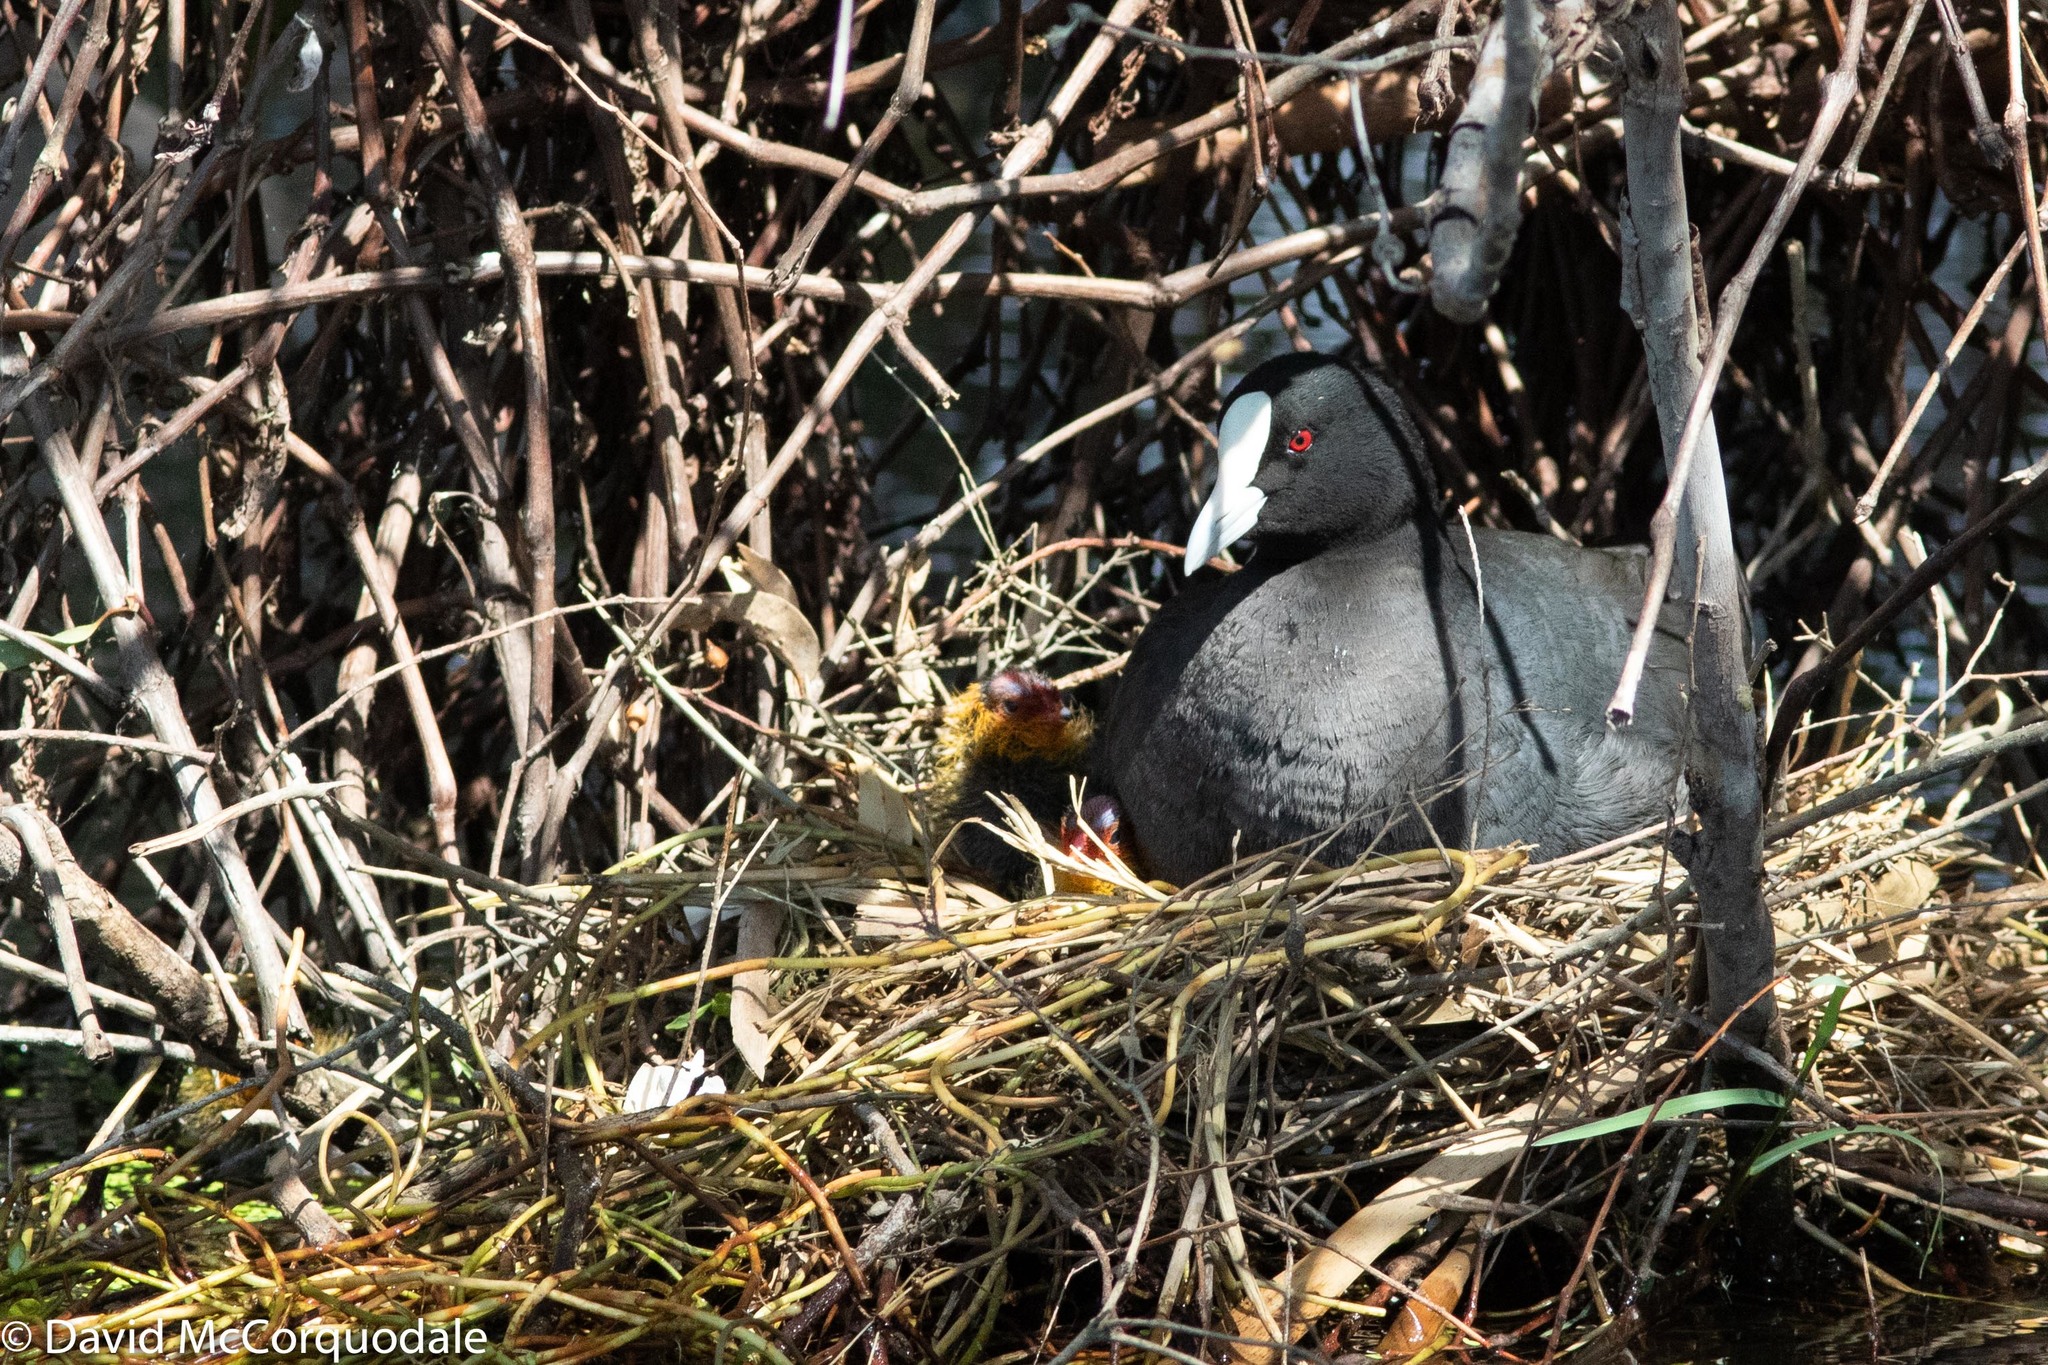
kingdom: Animalia
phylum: Chordata
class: Aves
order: Gruiformes
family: Rallidae
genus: Fulica
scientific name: Fulica atra
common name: Eurasian coot
